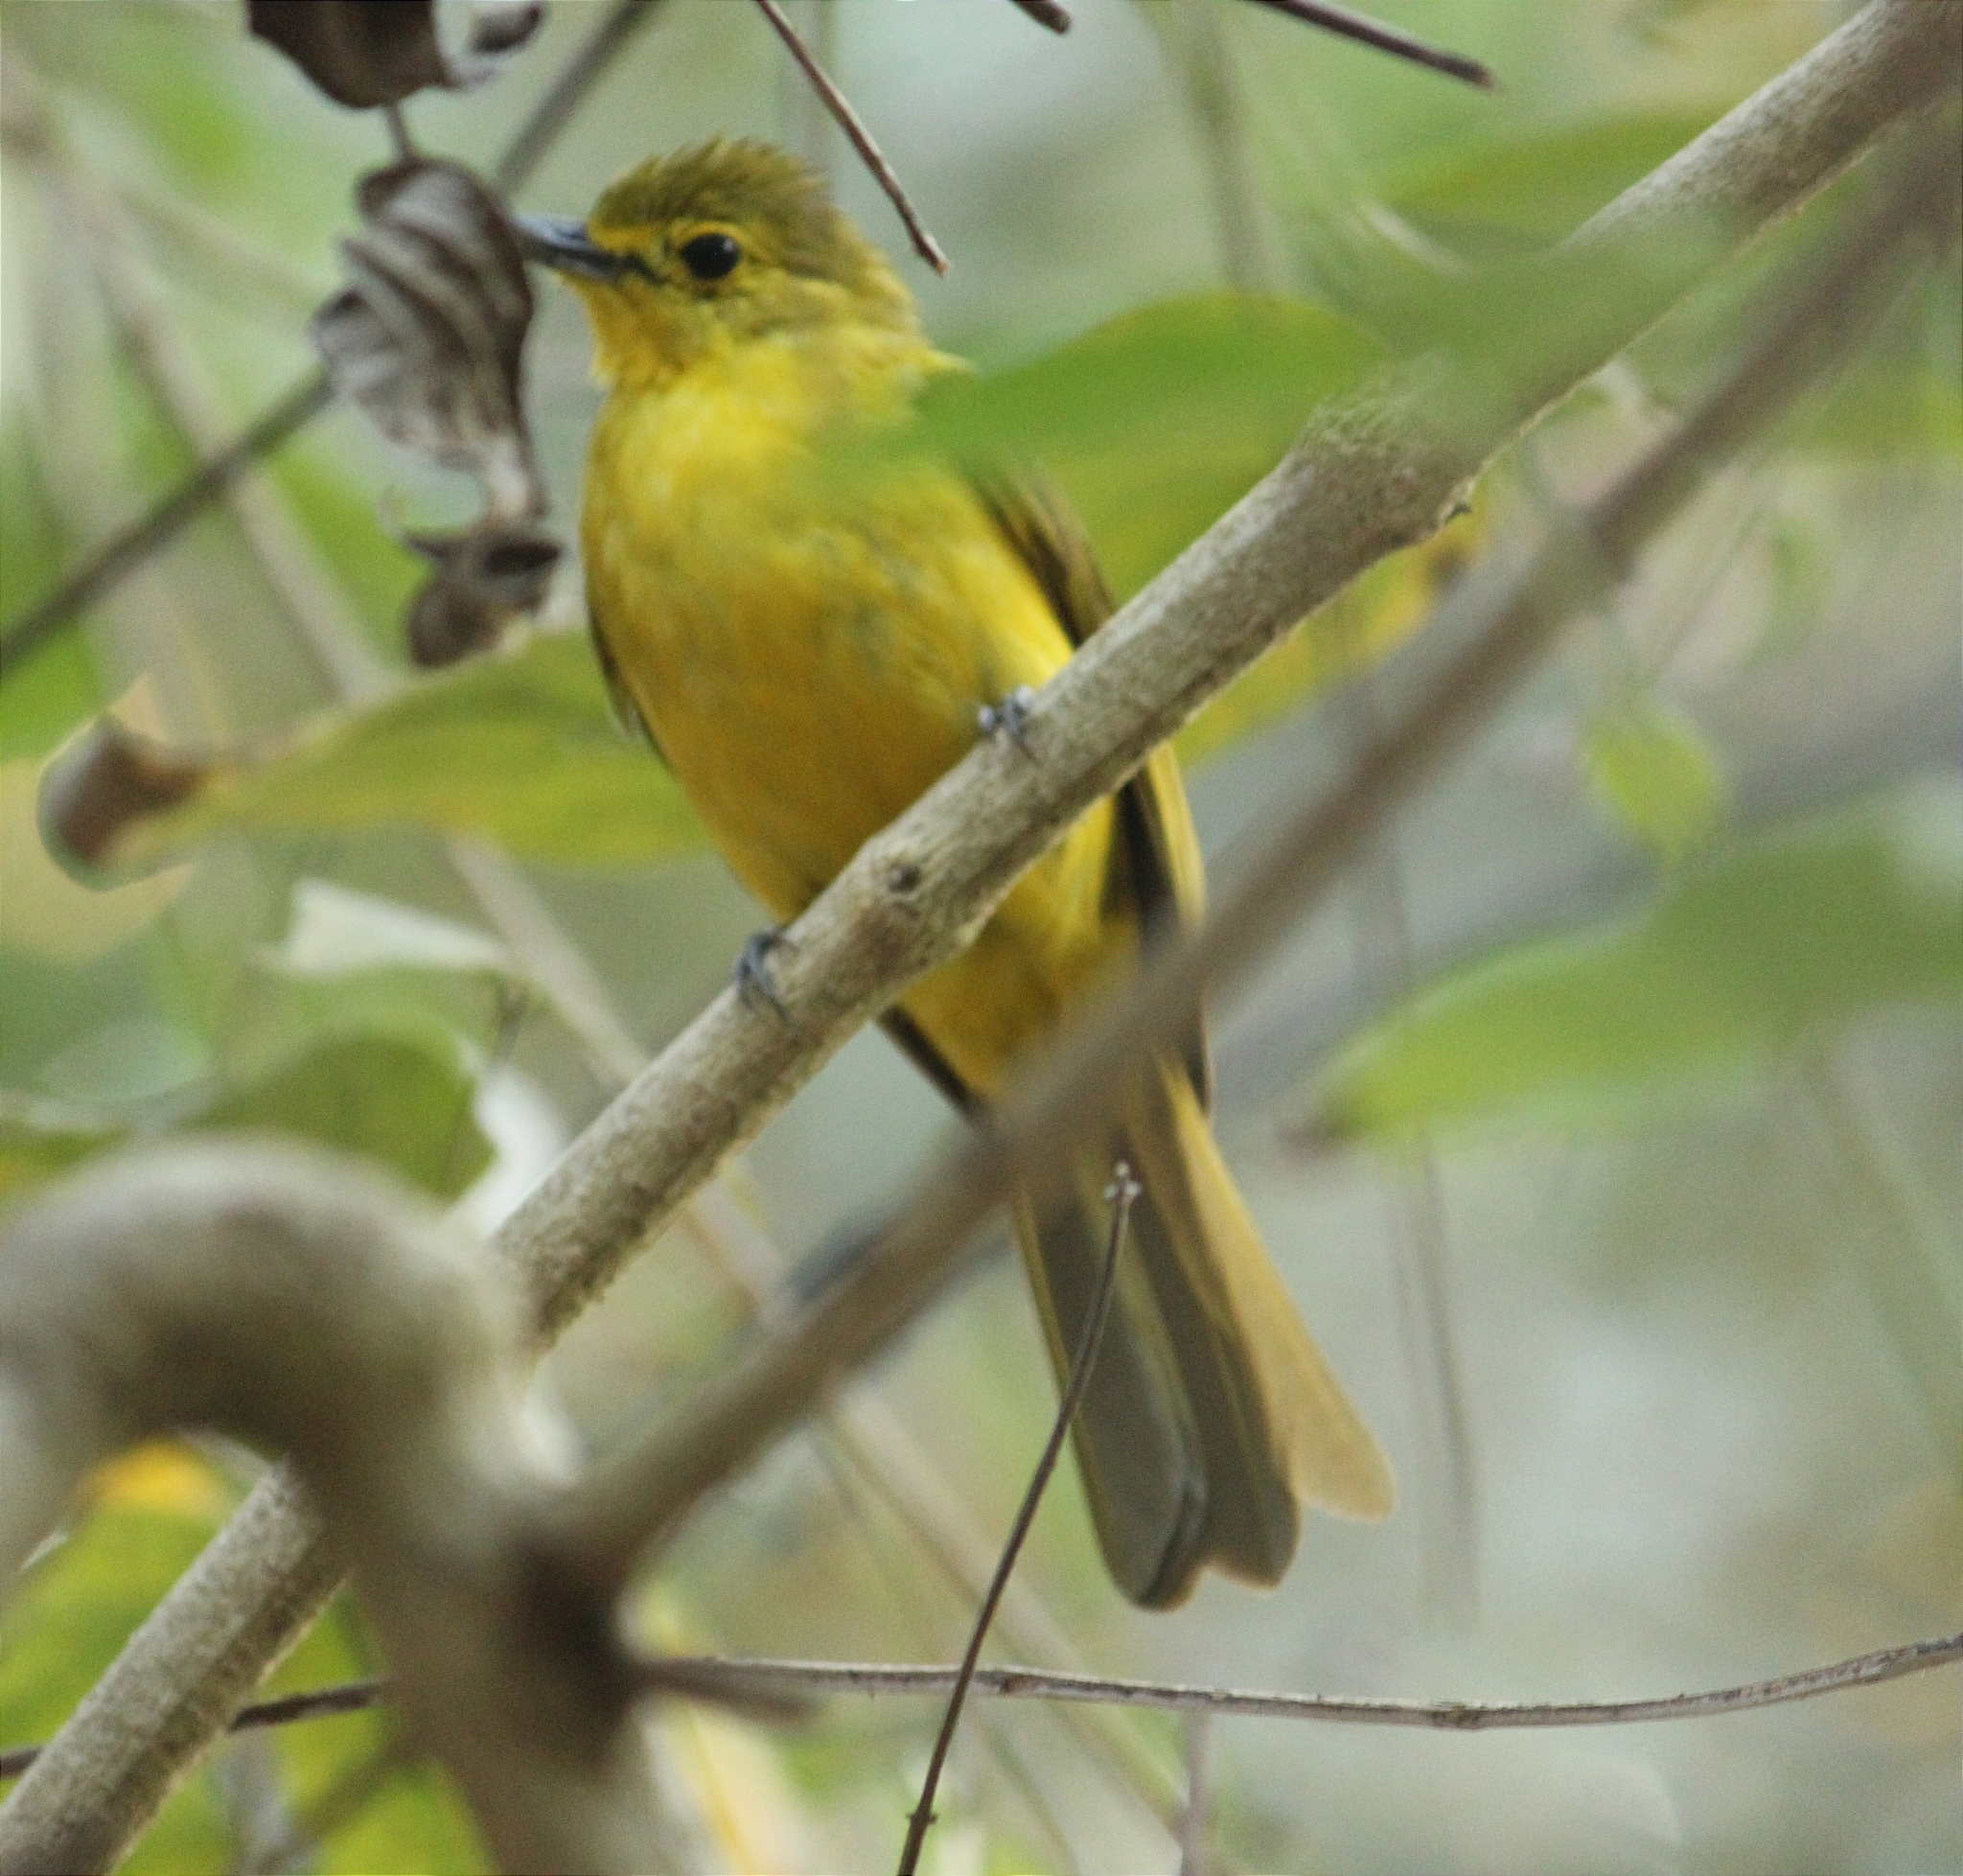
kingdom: Animalia
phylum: Chordata
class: Aves
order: Passeriformes
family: Pycnonotidae
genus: Acritillas
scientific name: Acritillas indica
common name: Yellow-browed bulbul
